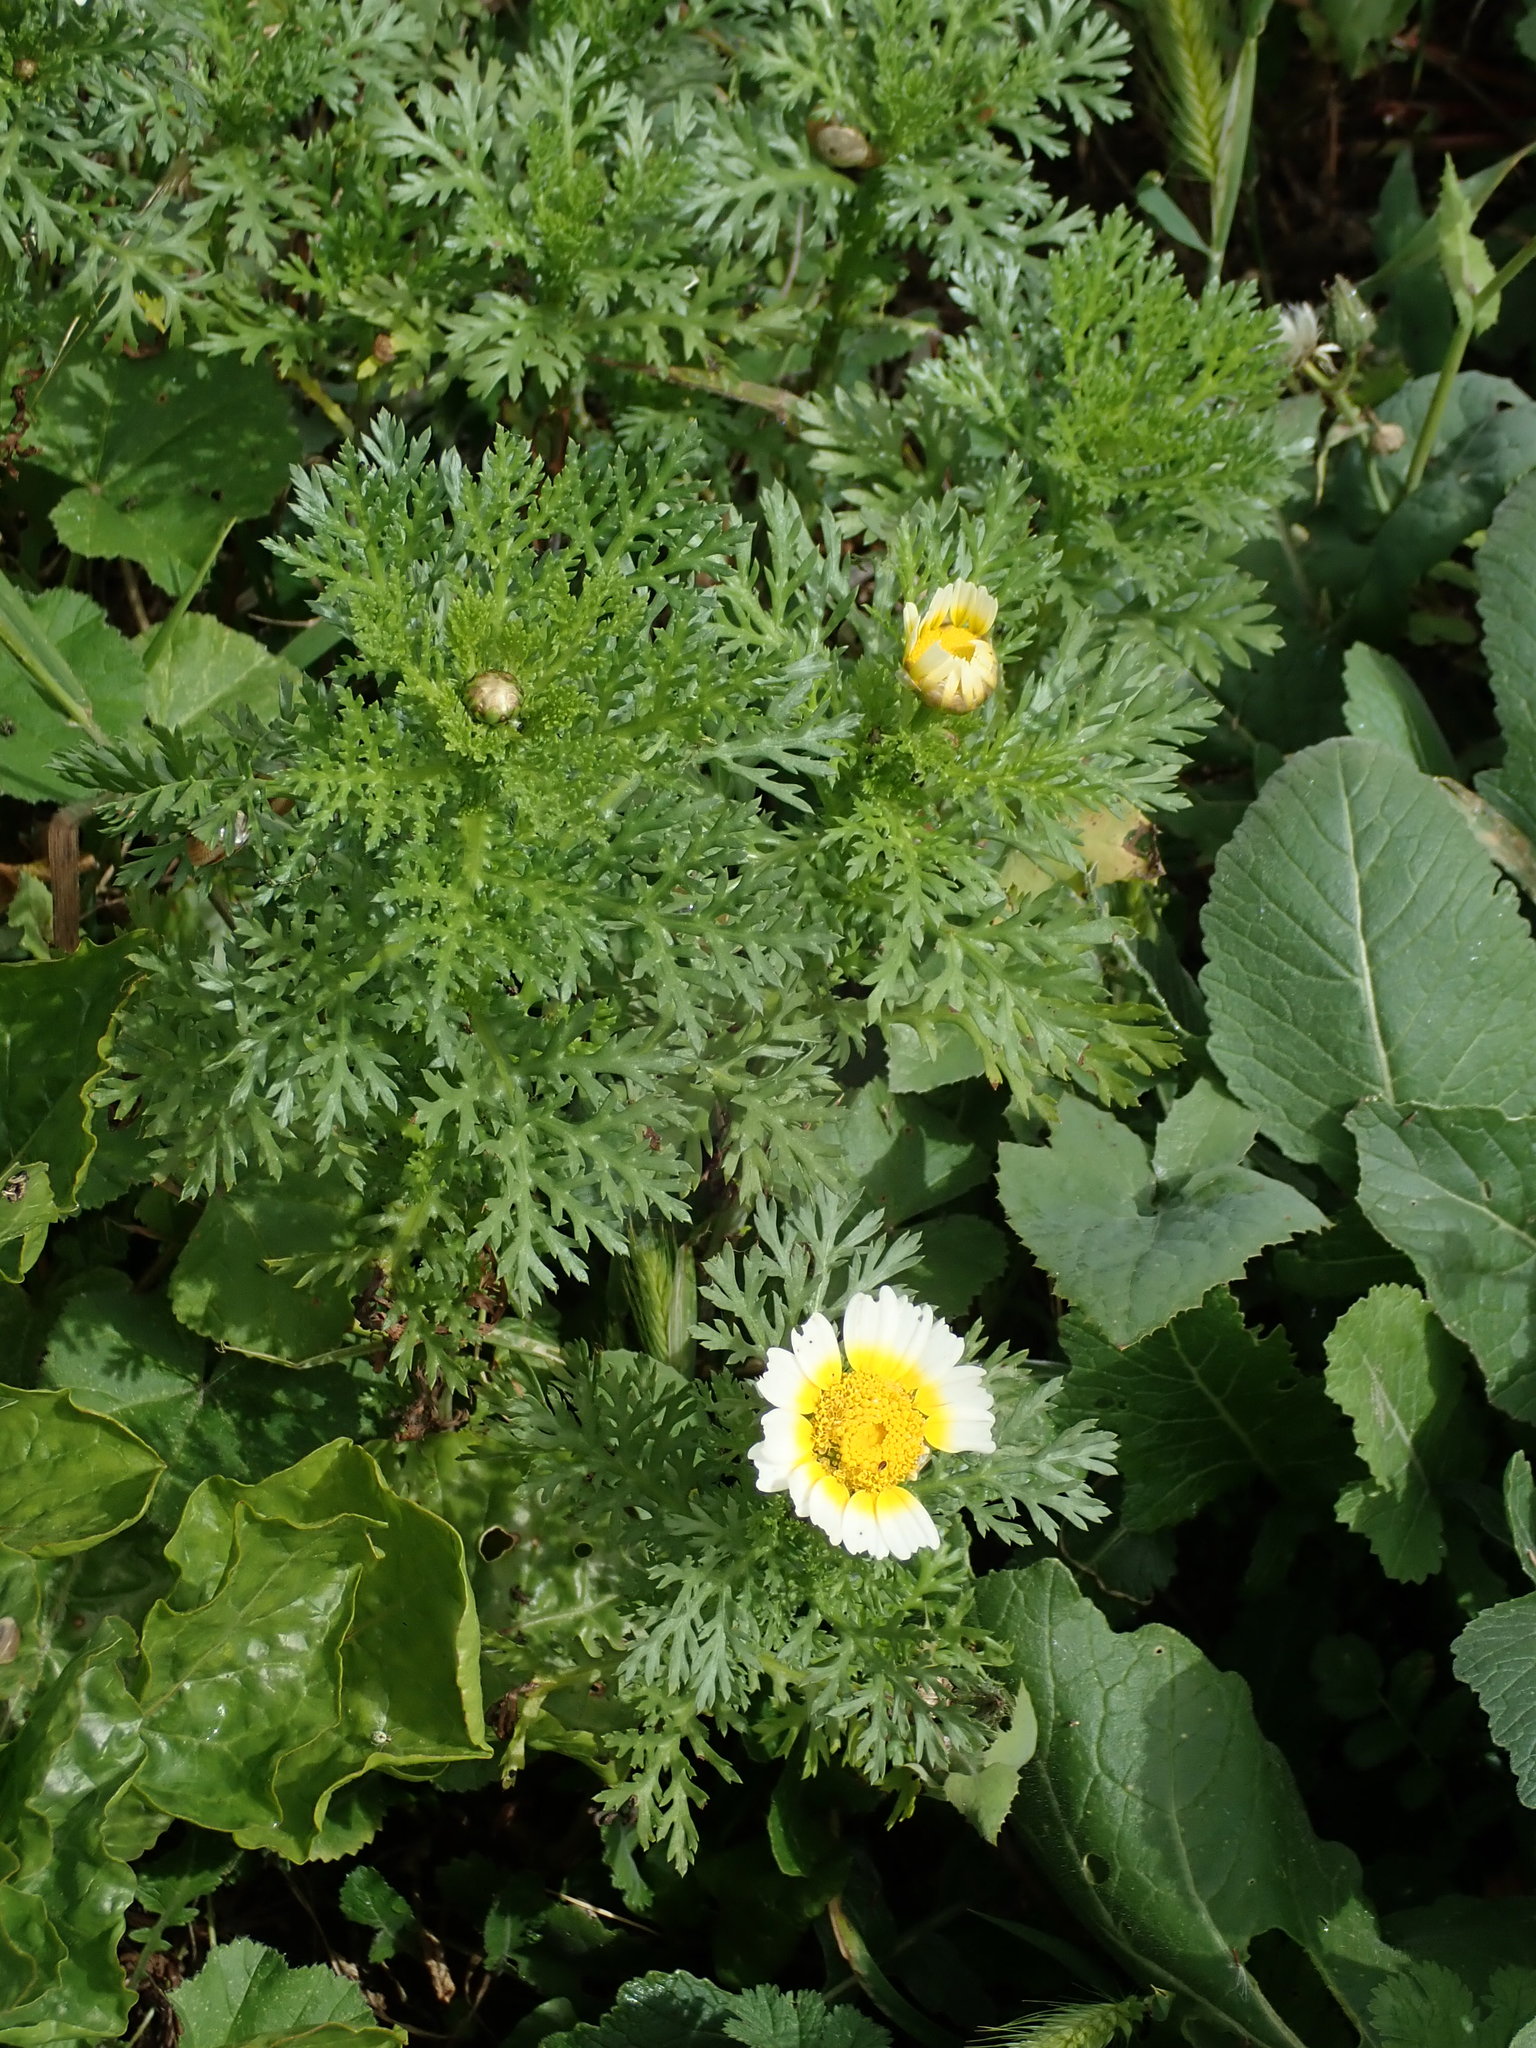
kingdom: Plantae
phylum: Tracheophyta
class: Magnoliopsida
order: Asterales
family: Asteraceae
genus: Glebionis
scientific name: Glebionis coronaria
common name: Crowndaisy
